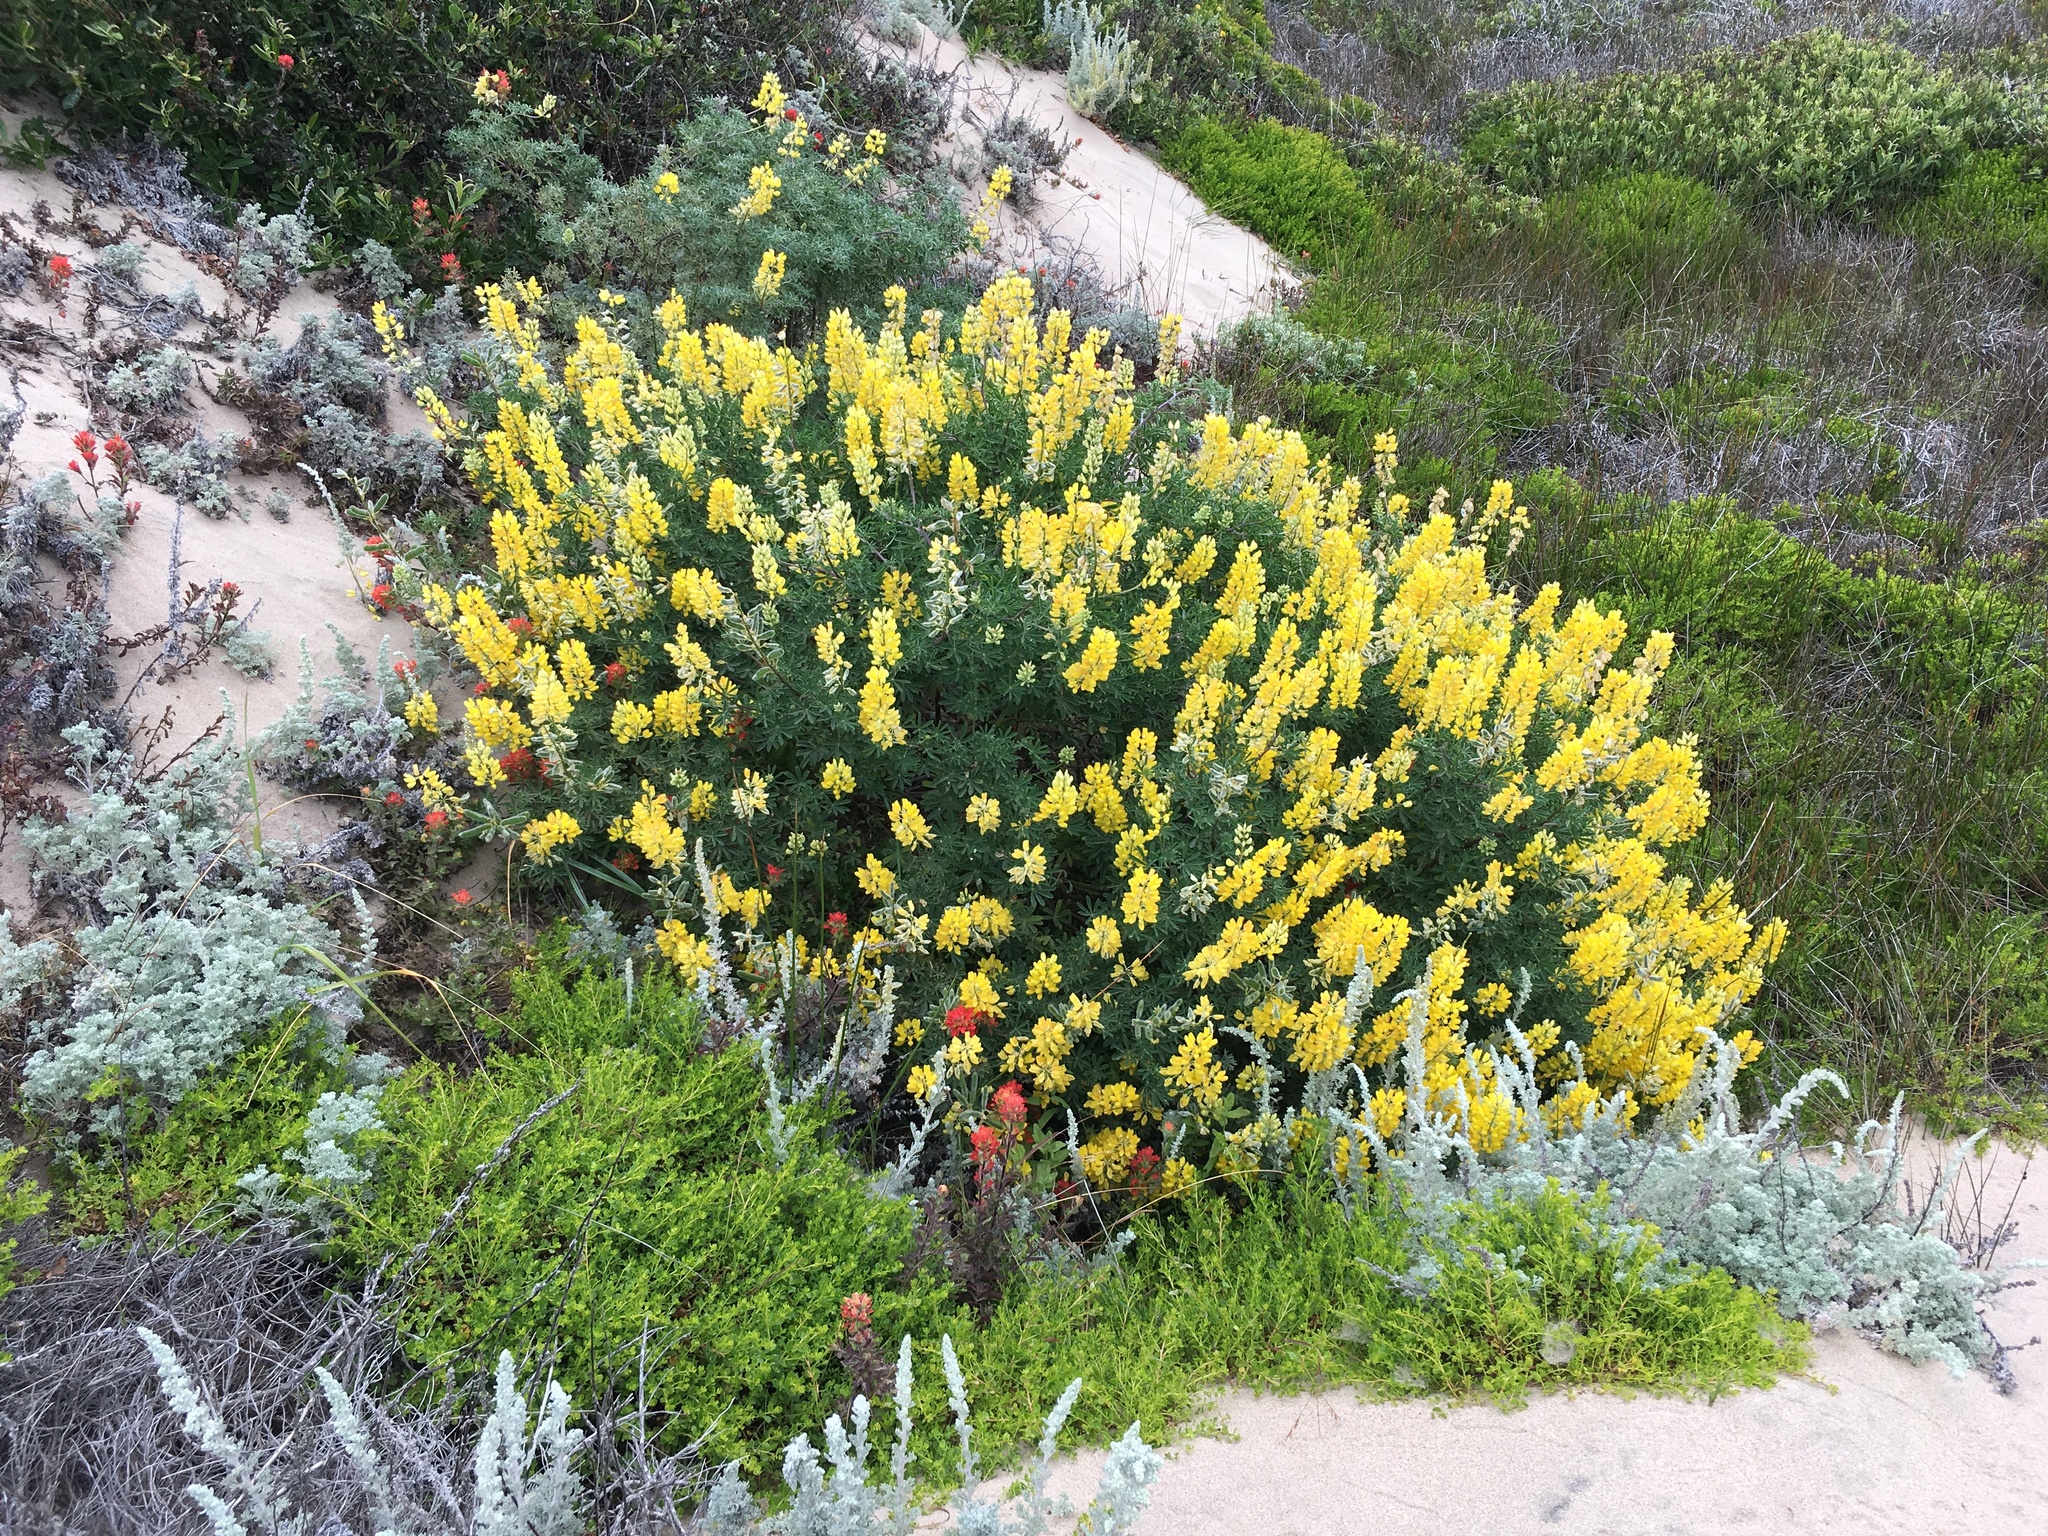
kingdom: Plantae
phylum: Tracheophyta
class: Magnoliopsida
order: Fabales
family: Fabaceae
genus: Lupinus
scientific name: Lupinus arboreus
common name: Yellow bush lupine
